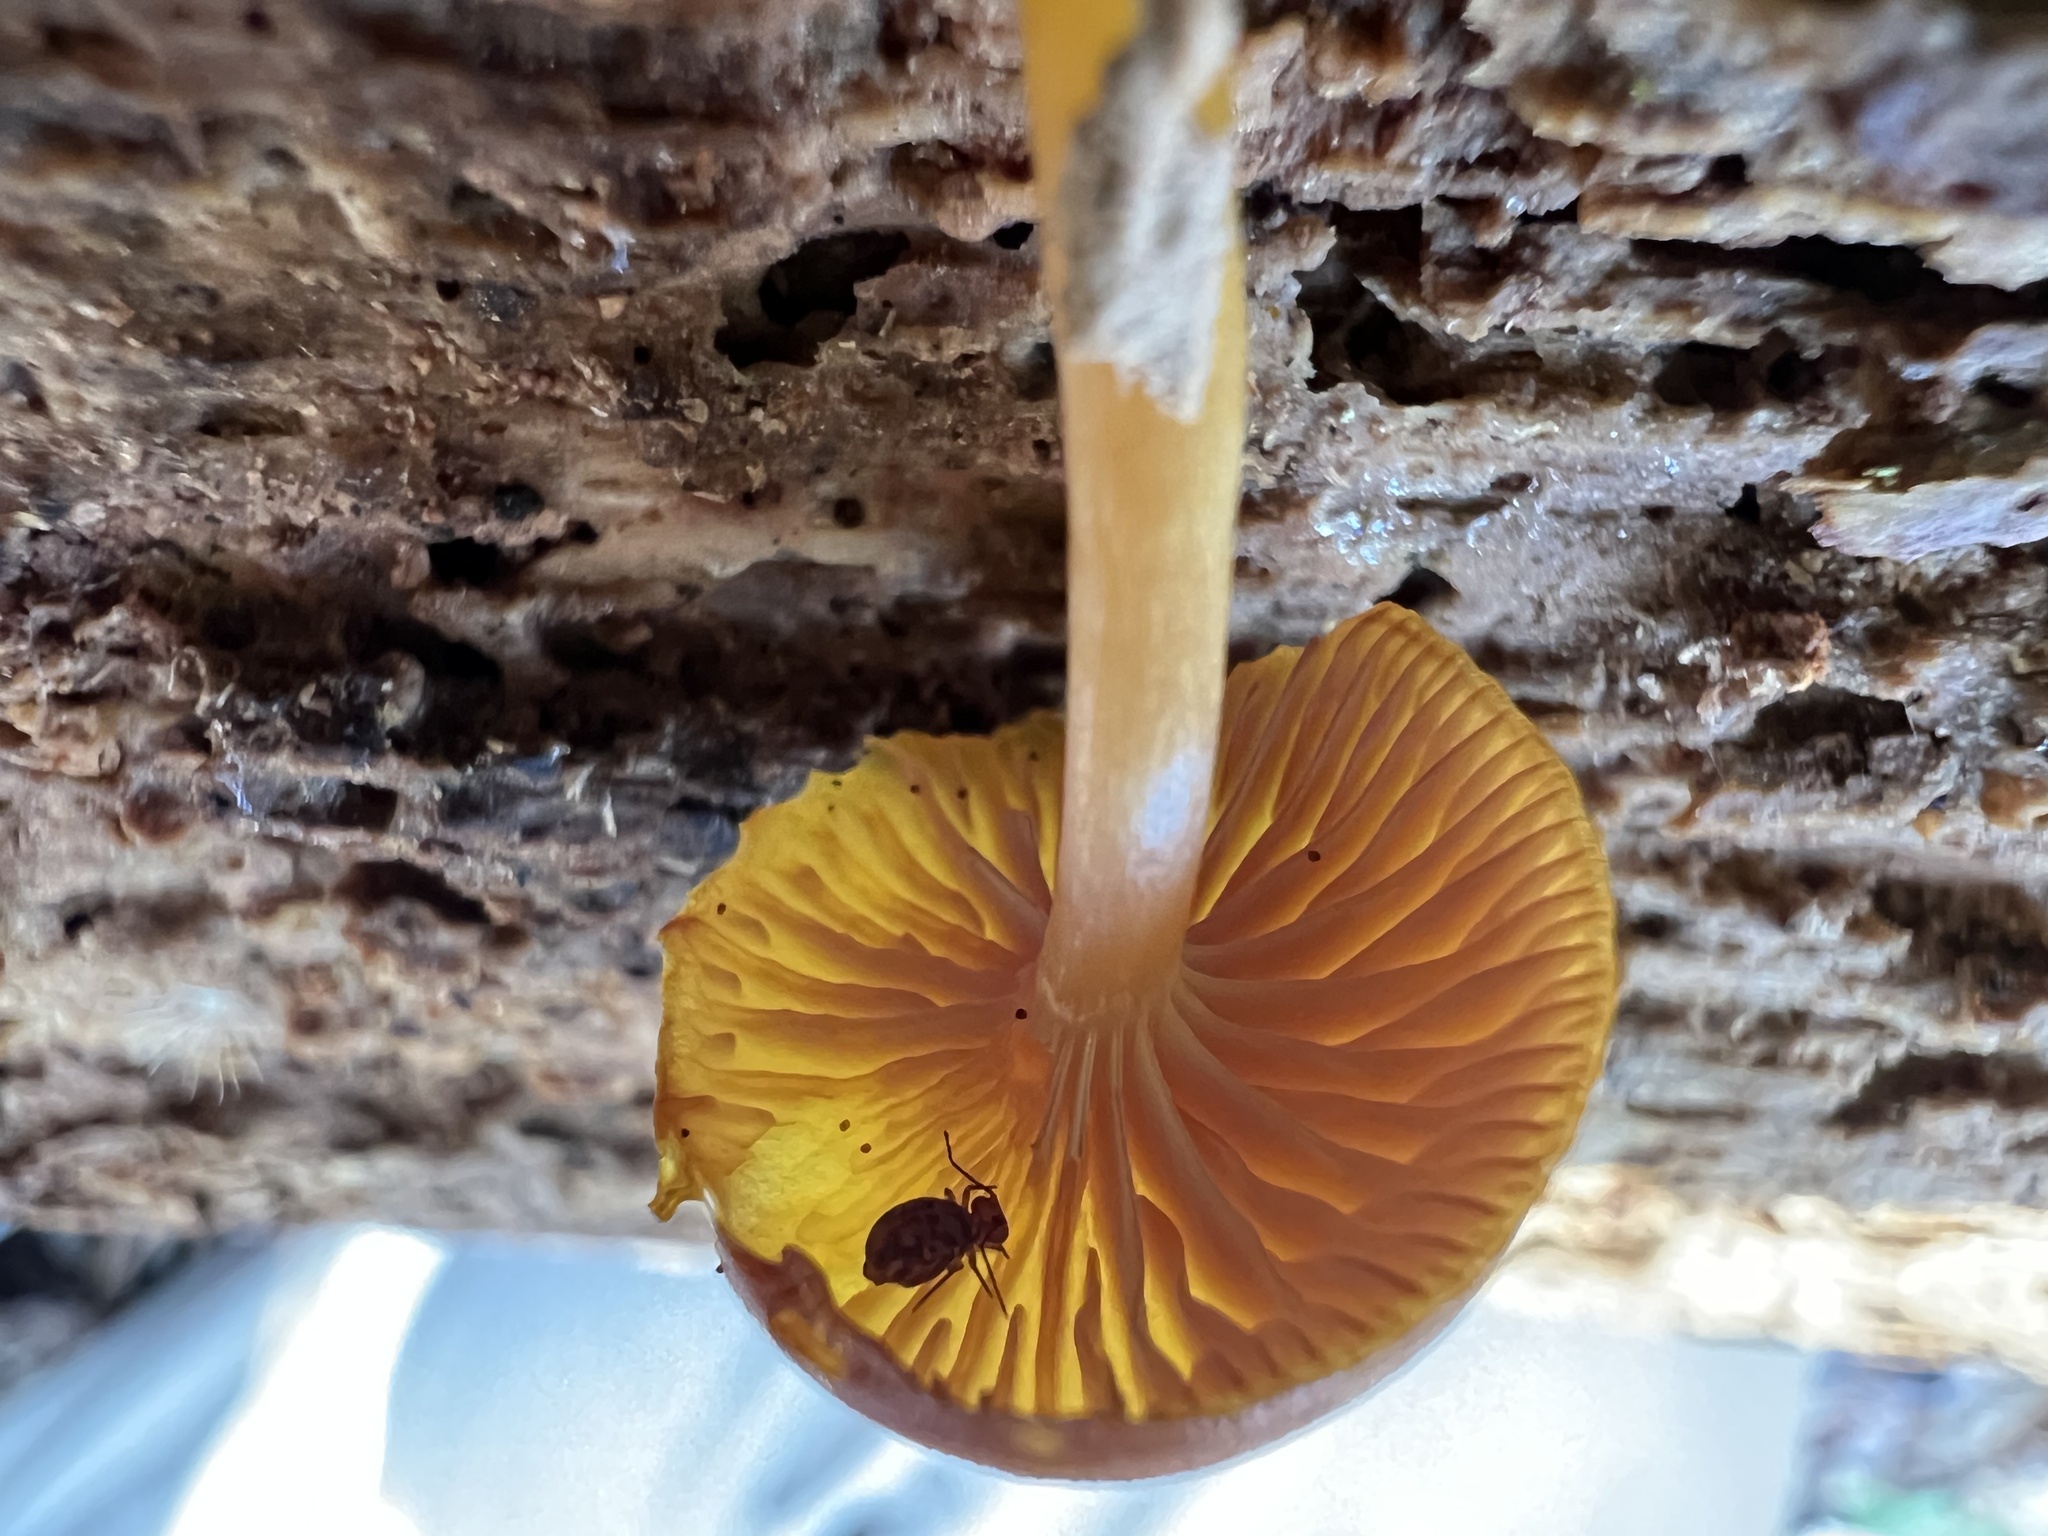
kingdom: Fungi
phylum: Basidiomycota
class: Agaricomycetes
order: Agaricales
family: Hygrophoraceae
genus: Chromosera
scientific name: Chromosera cyanophylla
